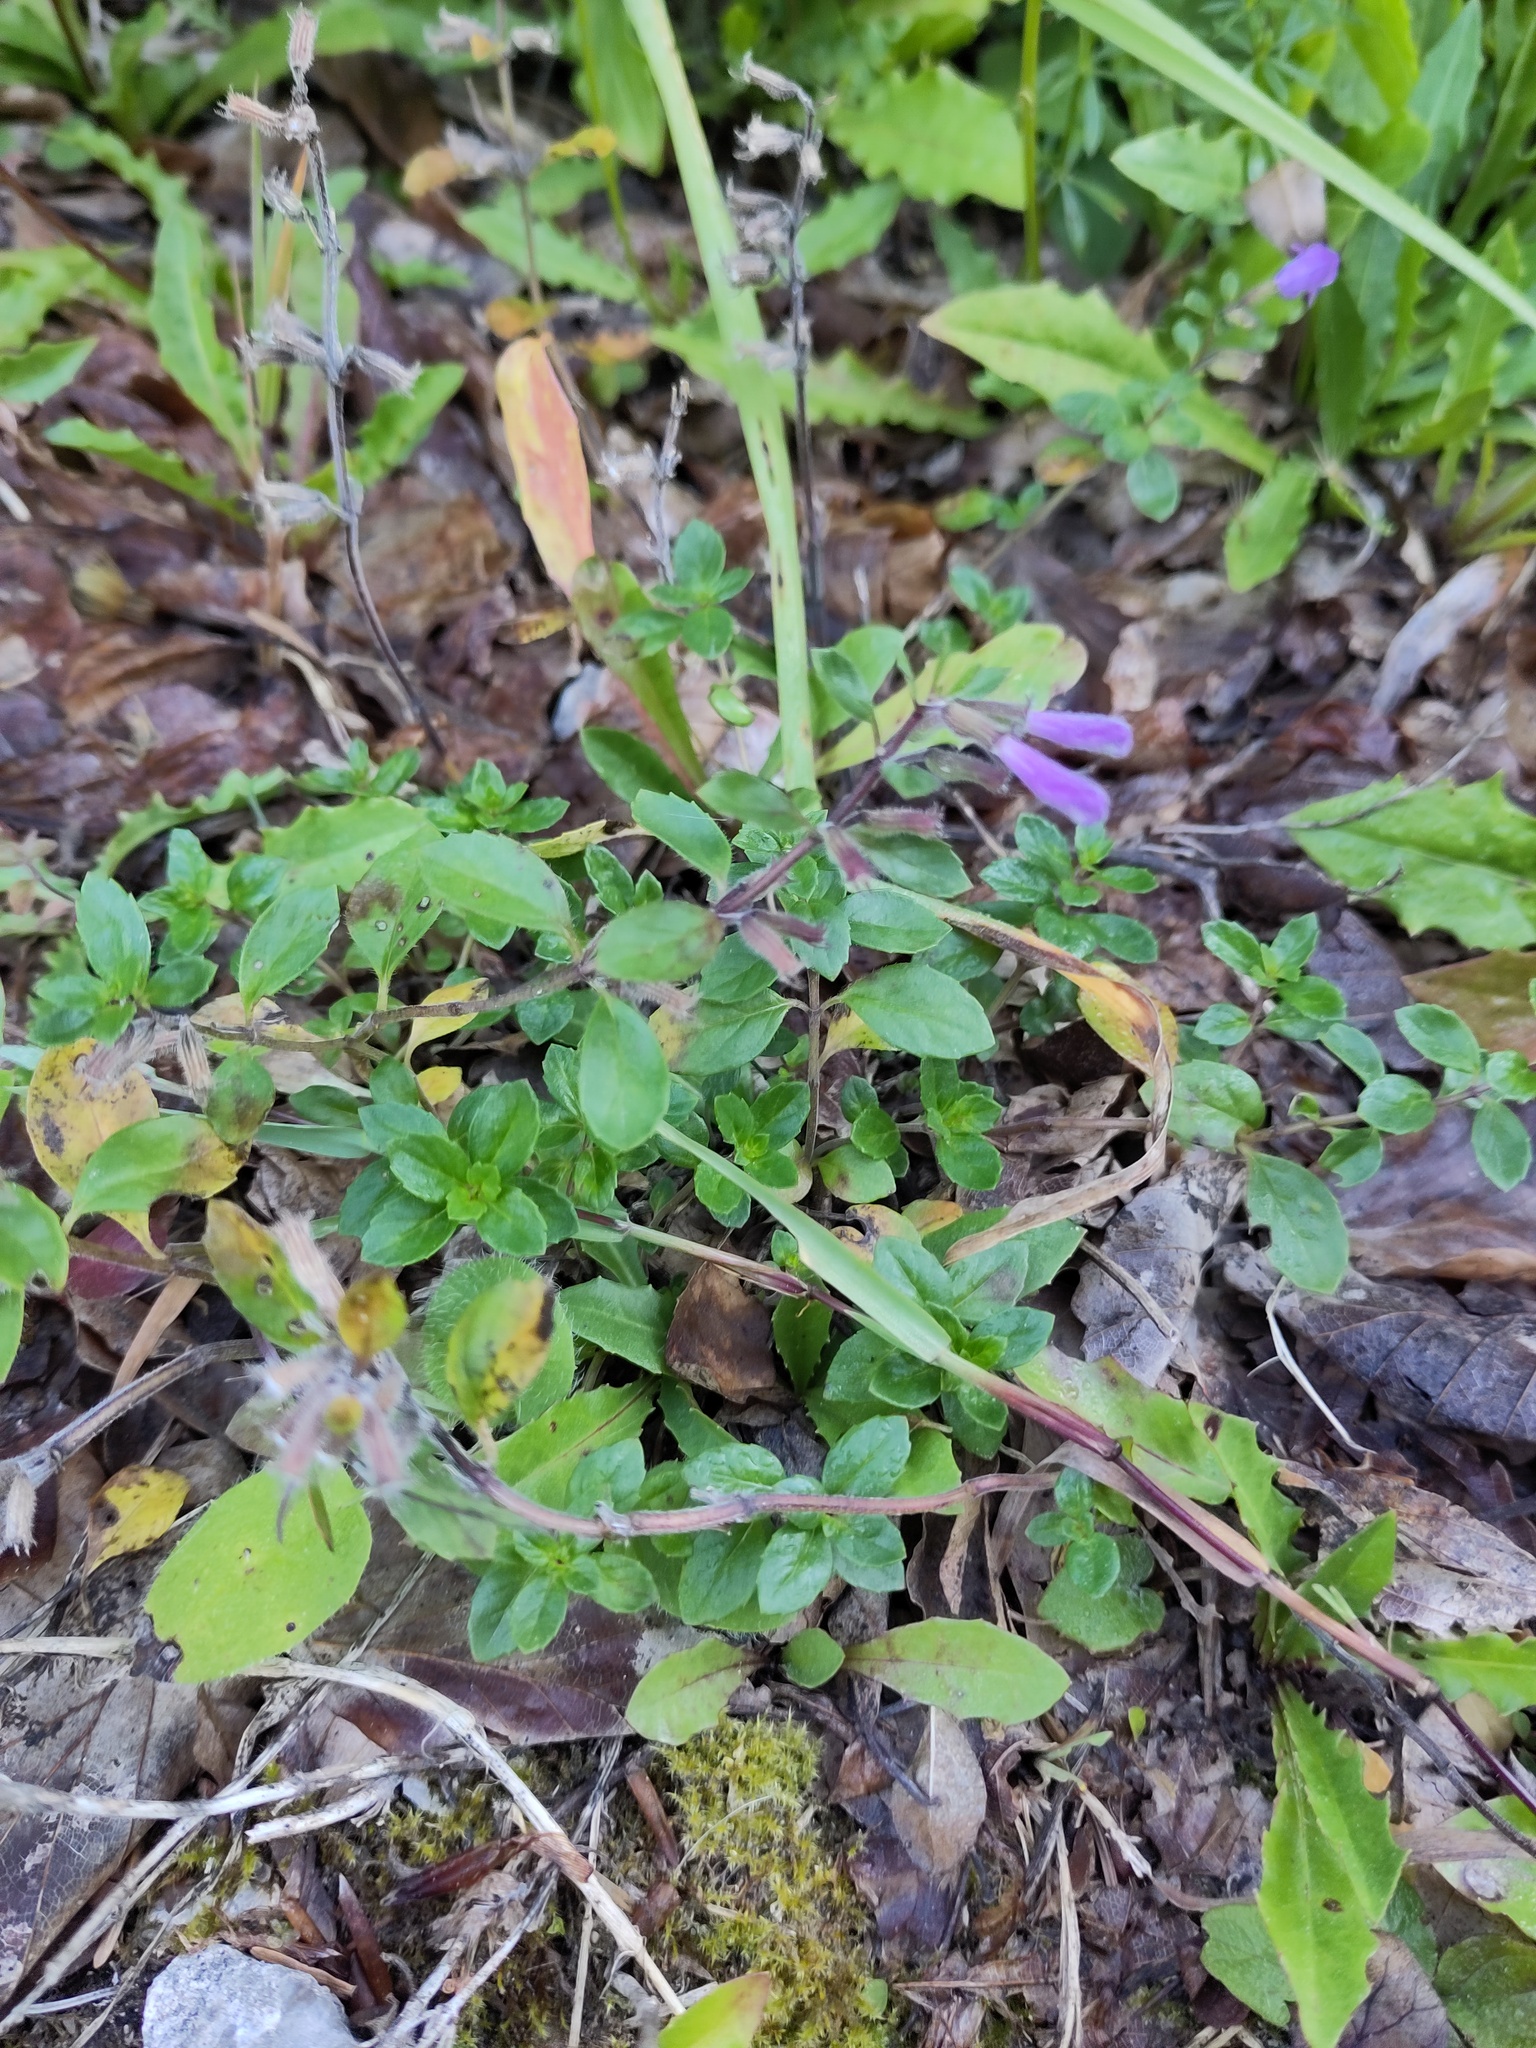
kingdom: Plantae
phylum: Tracheophyta
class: Magnoliopsida
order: Lamiales
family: Lamiaceae
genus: Clinopodium
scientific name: Clinopodium alpinum
